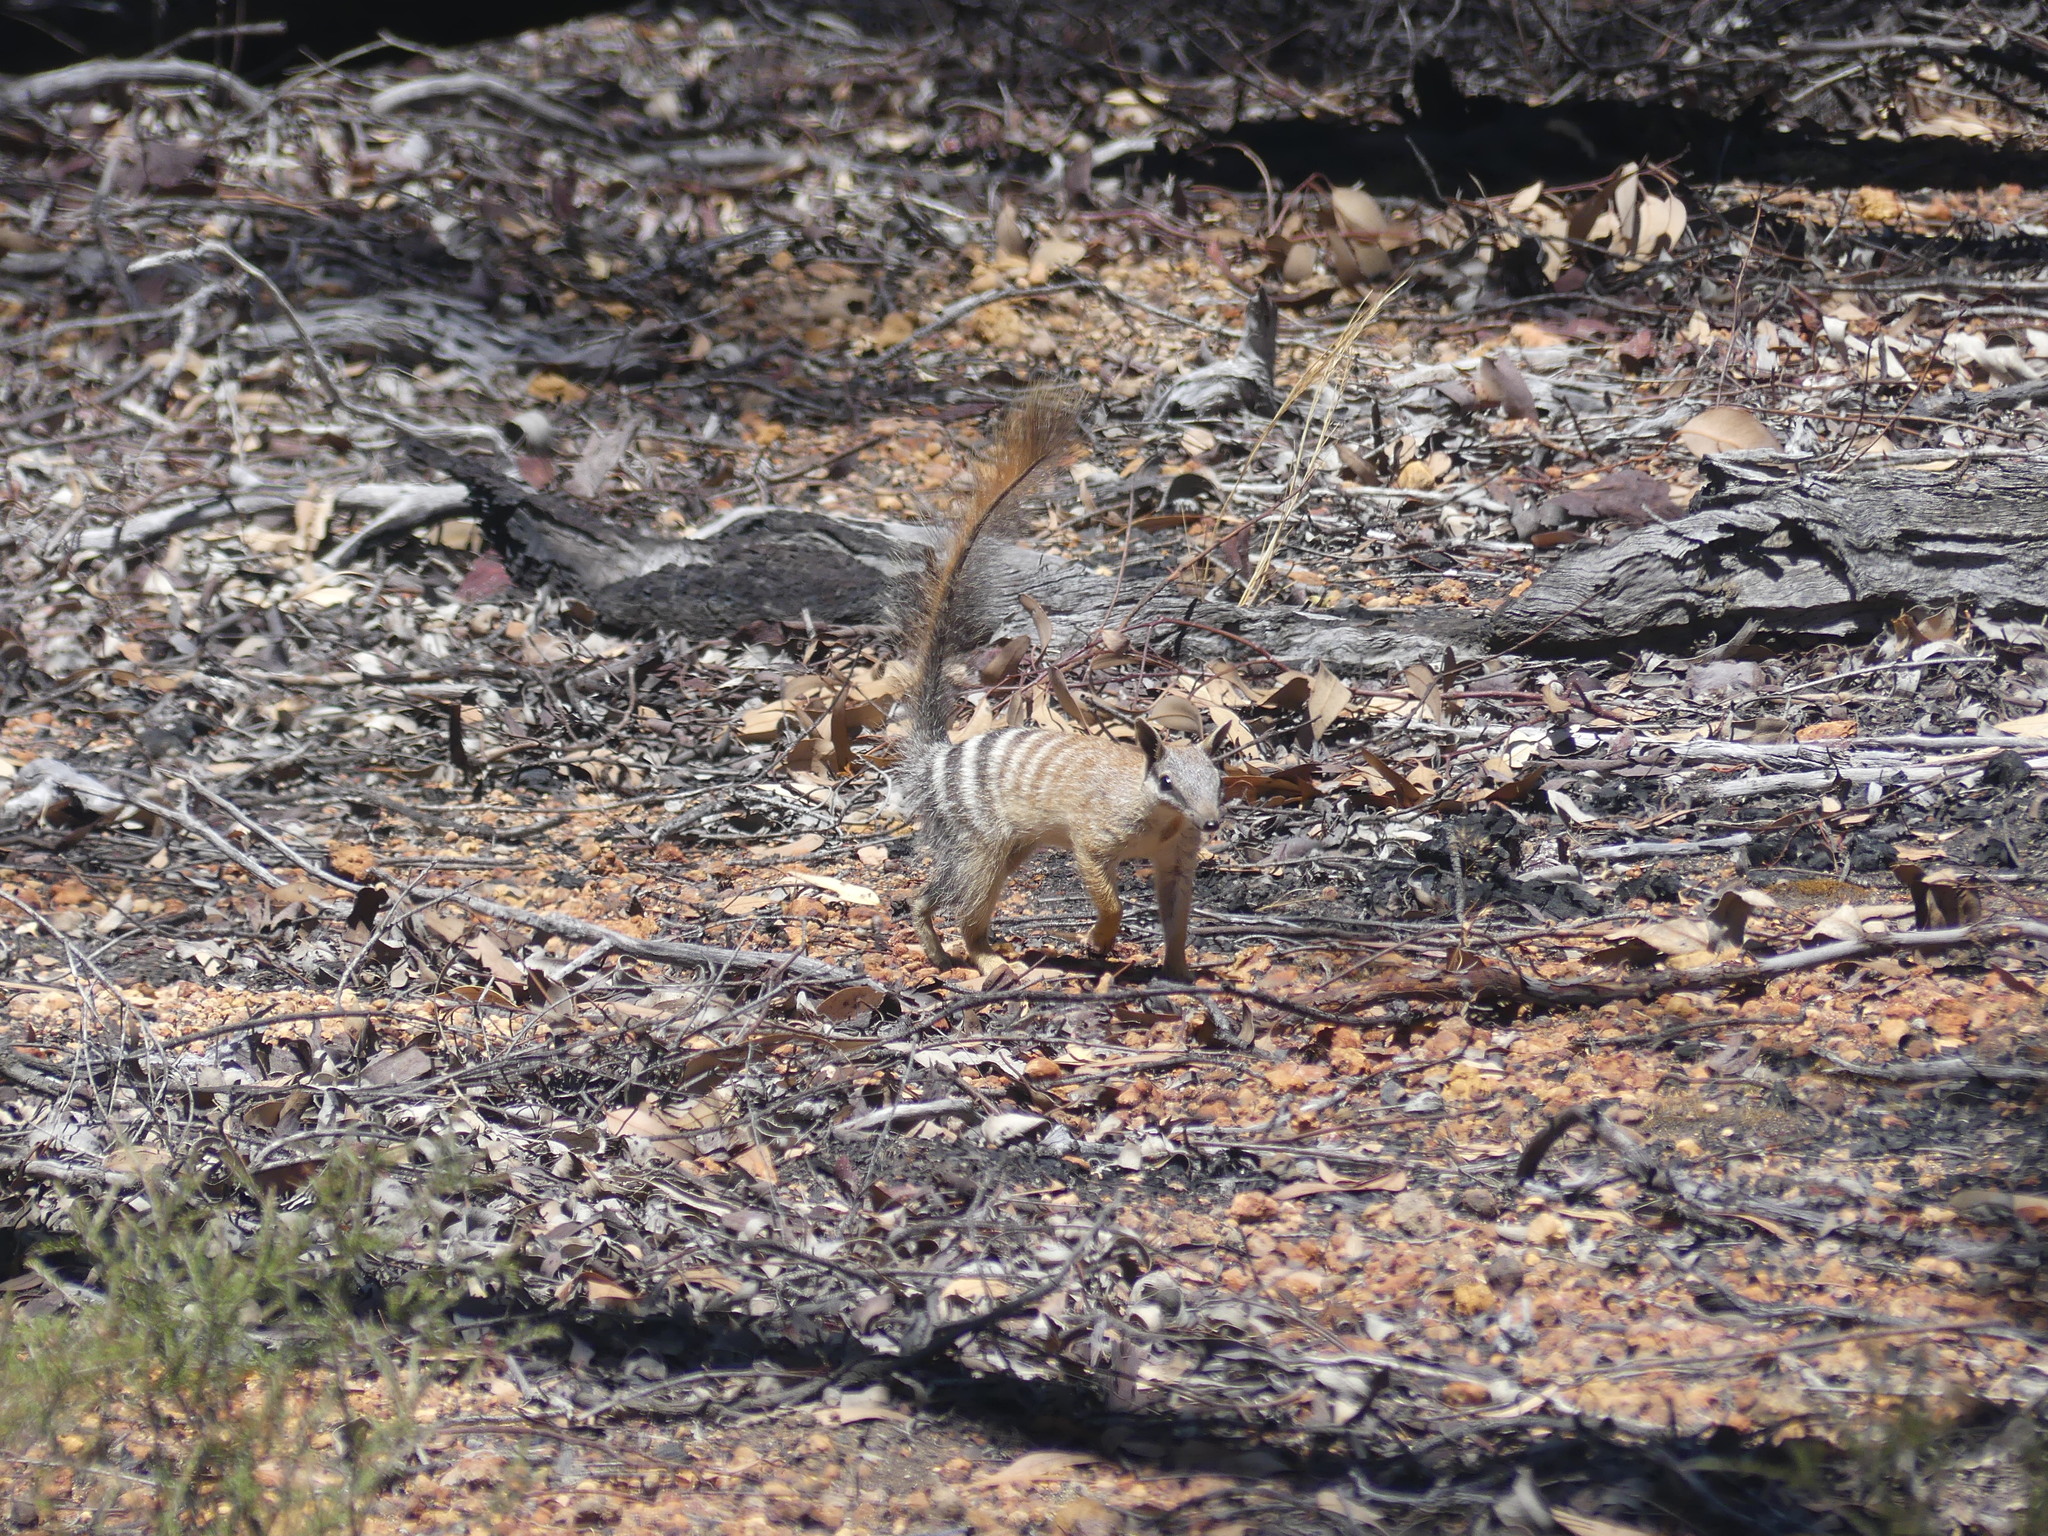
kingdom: Animalia
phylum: Chordata
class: Mammalia
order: Dasyuromorphia
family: Myrmecobiidae
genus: Myrmecobius
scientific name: Myrmecobius fasciatus
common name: Numbat
